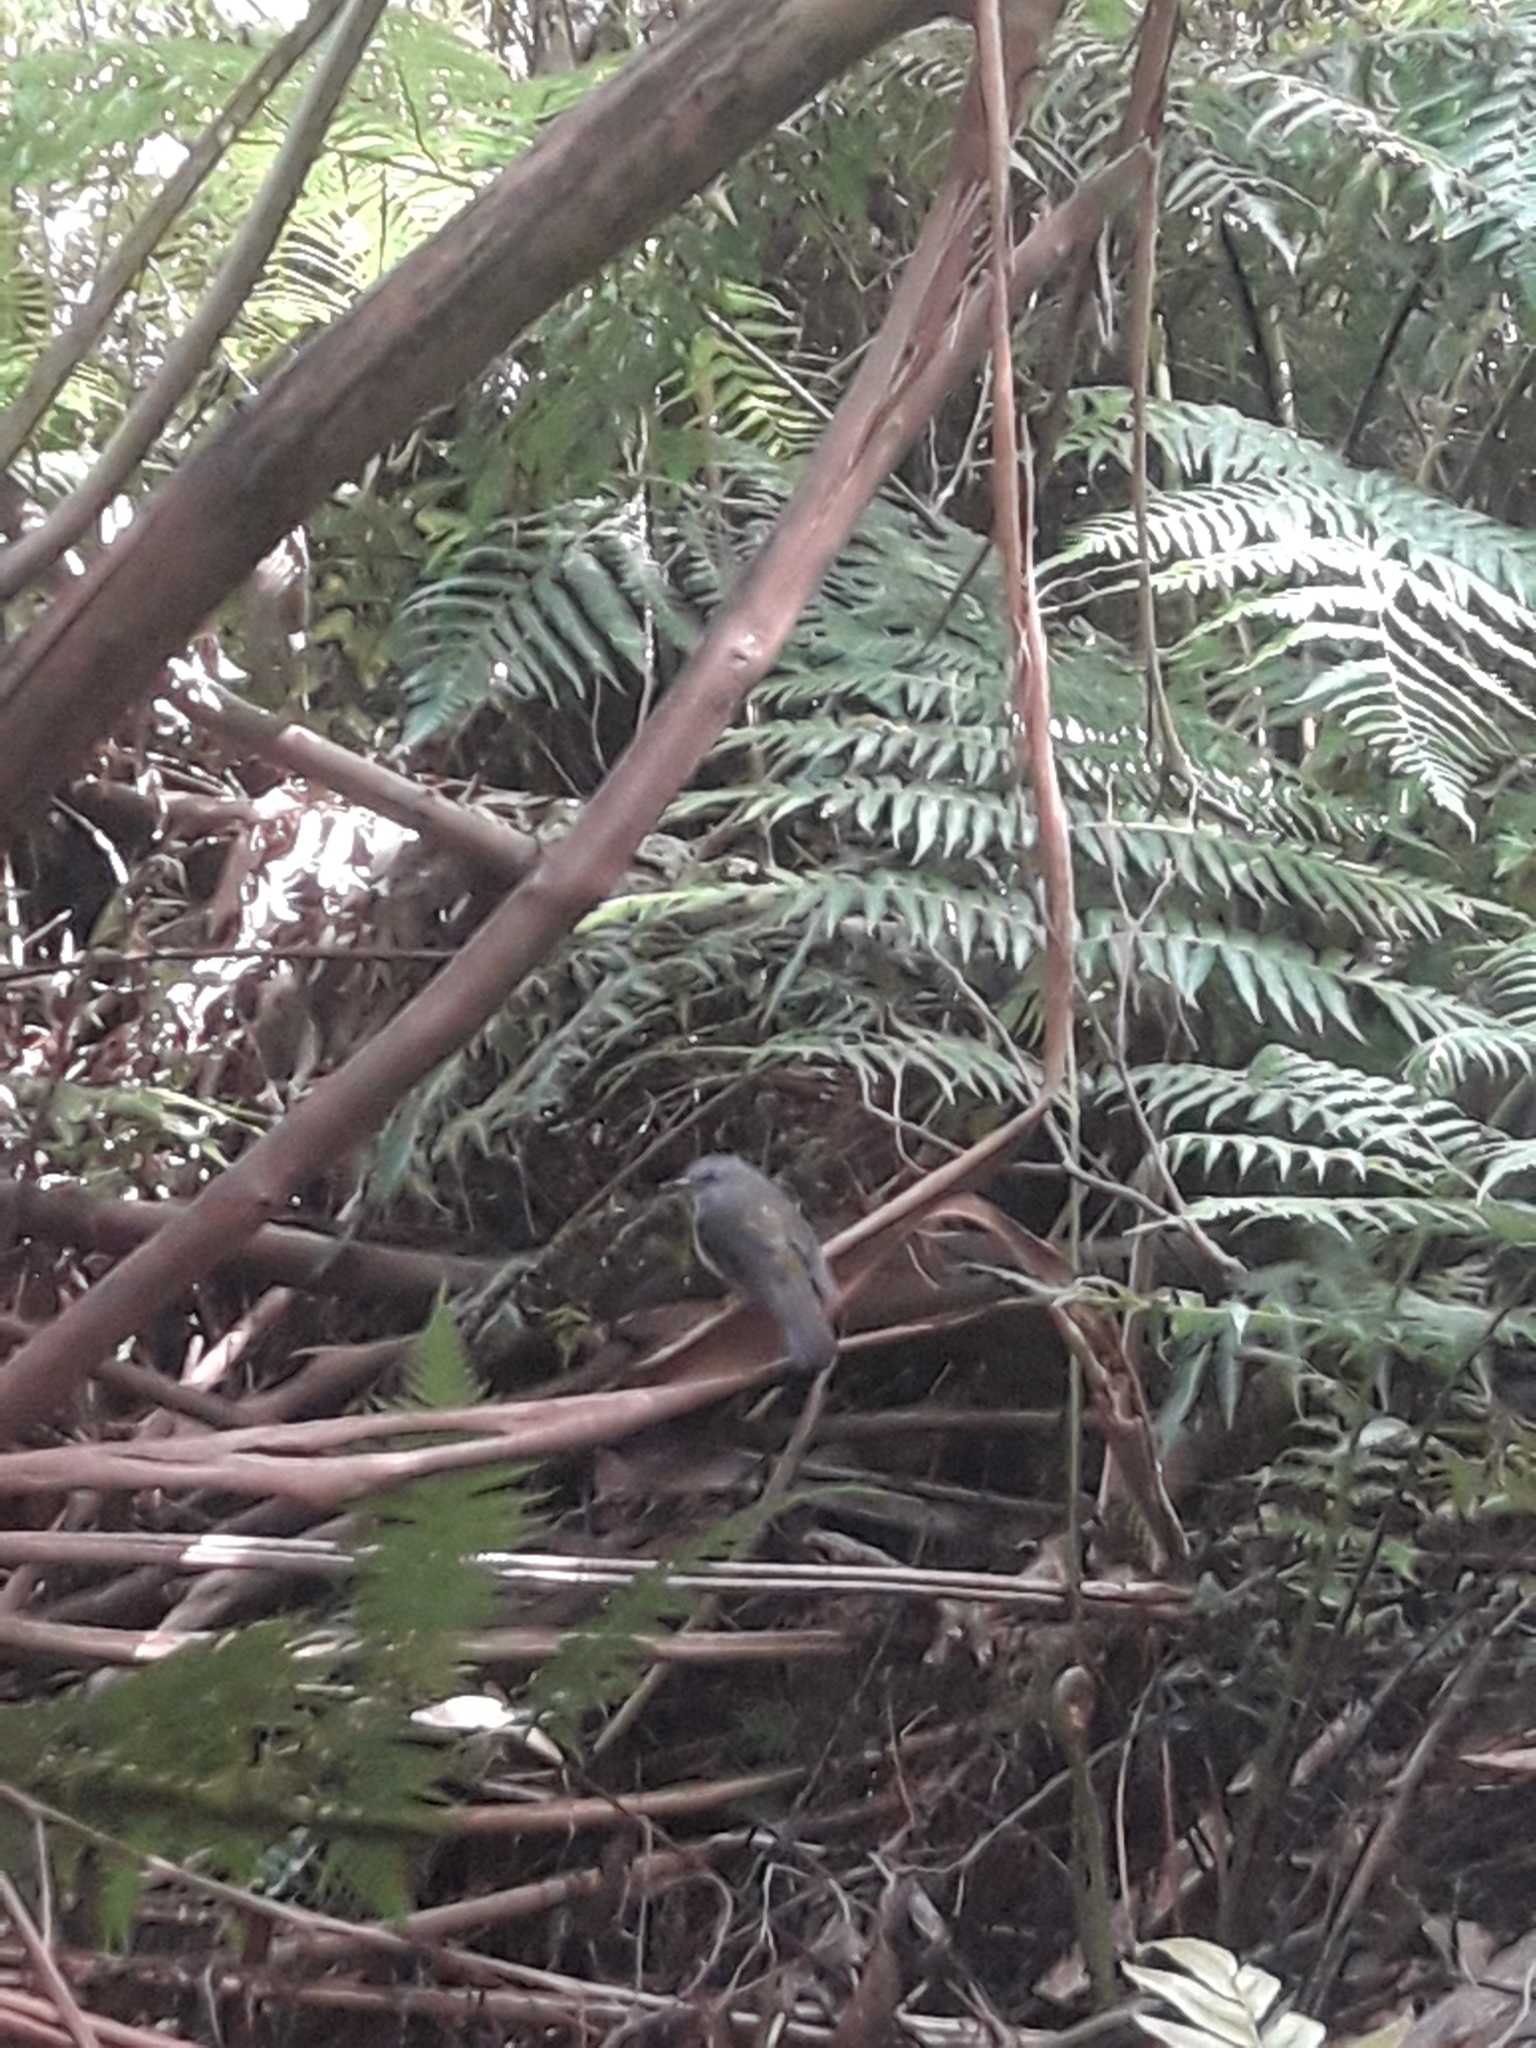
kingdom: Animalia
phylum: Chordata
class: Aves
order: Passeriformes
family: Petroicidae
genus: Eopsaltria
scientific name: Eopsaltria australis
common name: Eastern yellow robin
